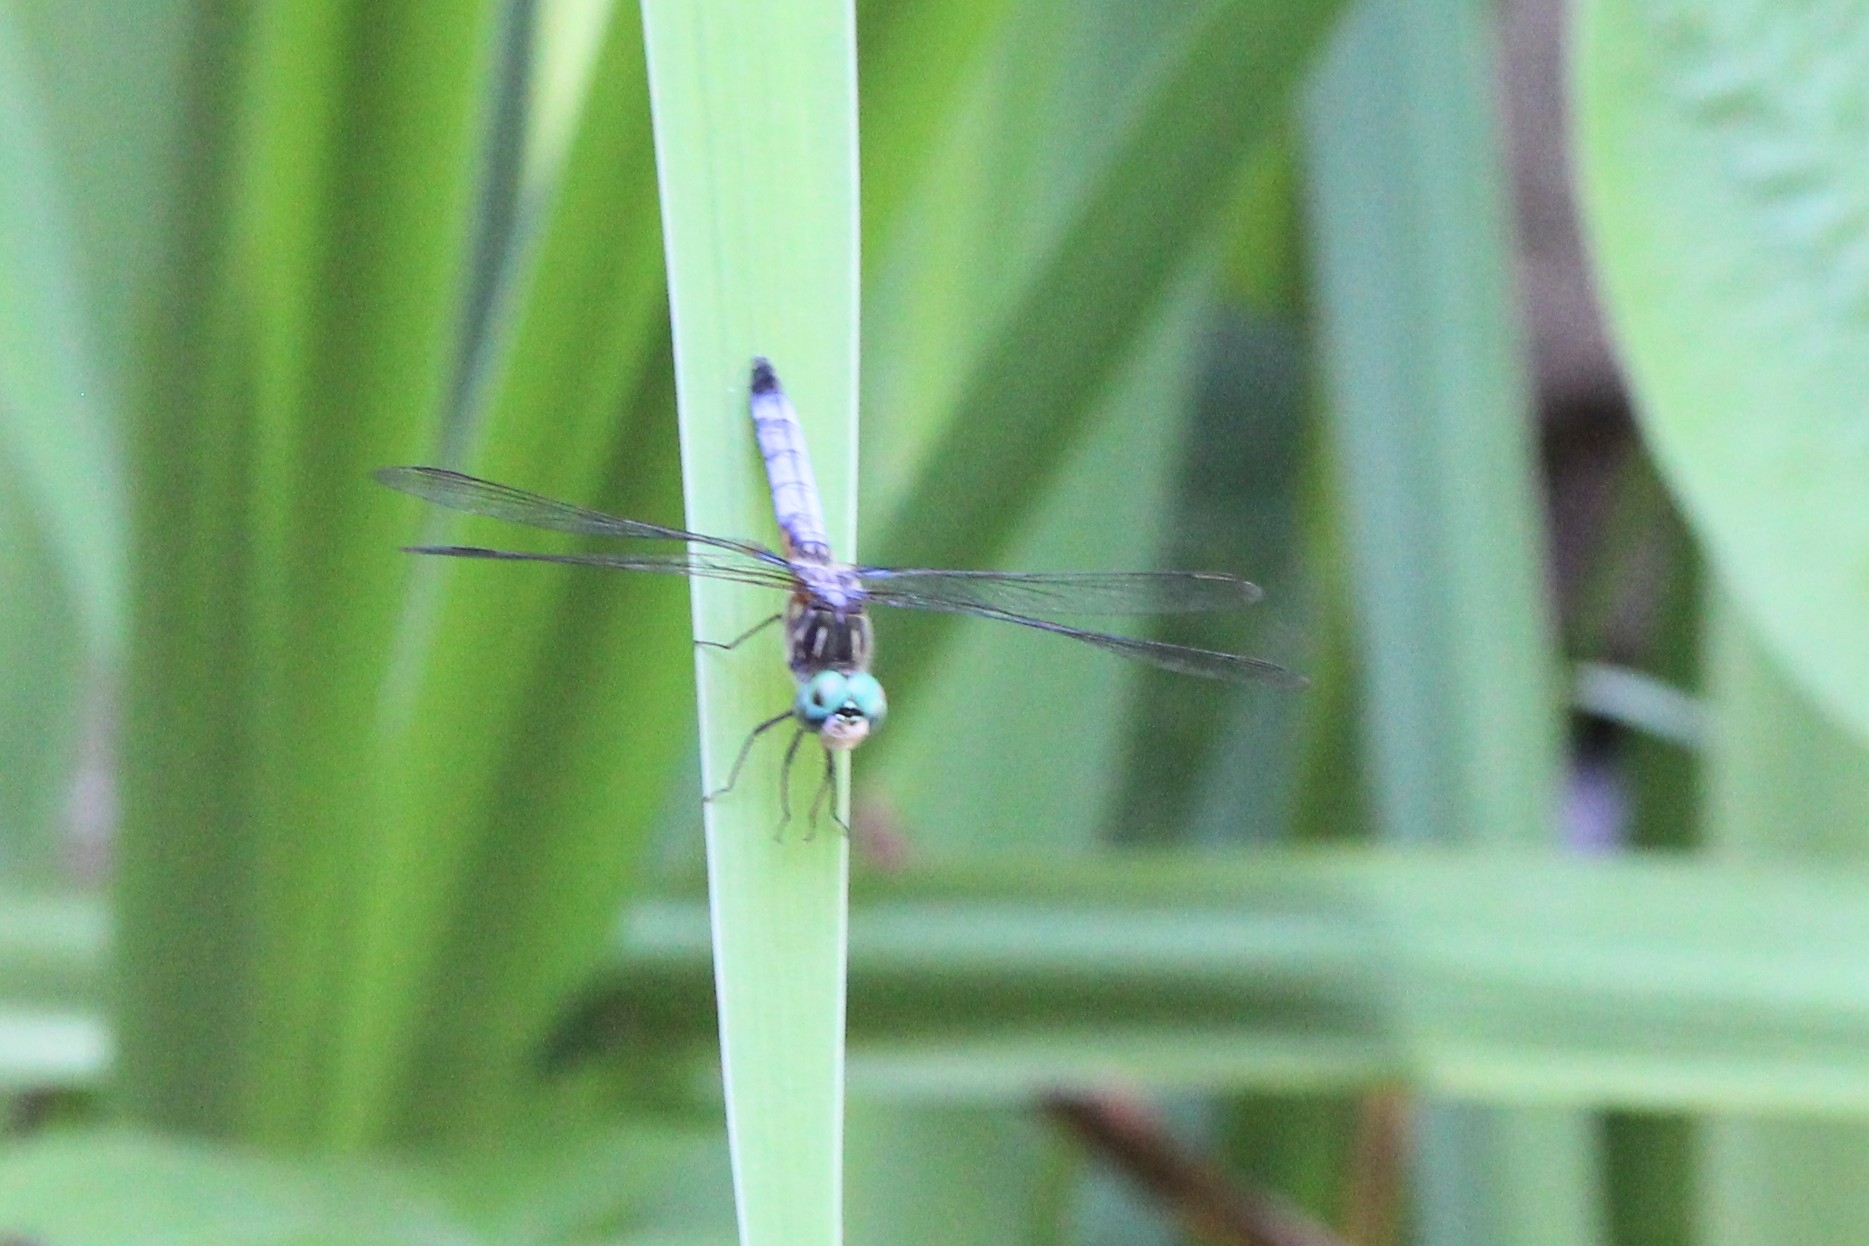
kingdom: Animalia
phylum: Arthropoda
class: Insecta
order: Odonata
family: Libellulidae
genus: Pachydiplax
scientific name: Pachydiplax longipennis
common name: Blue dasher
